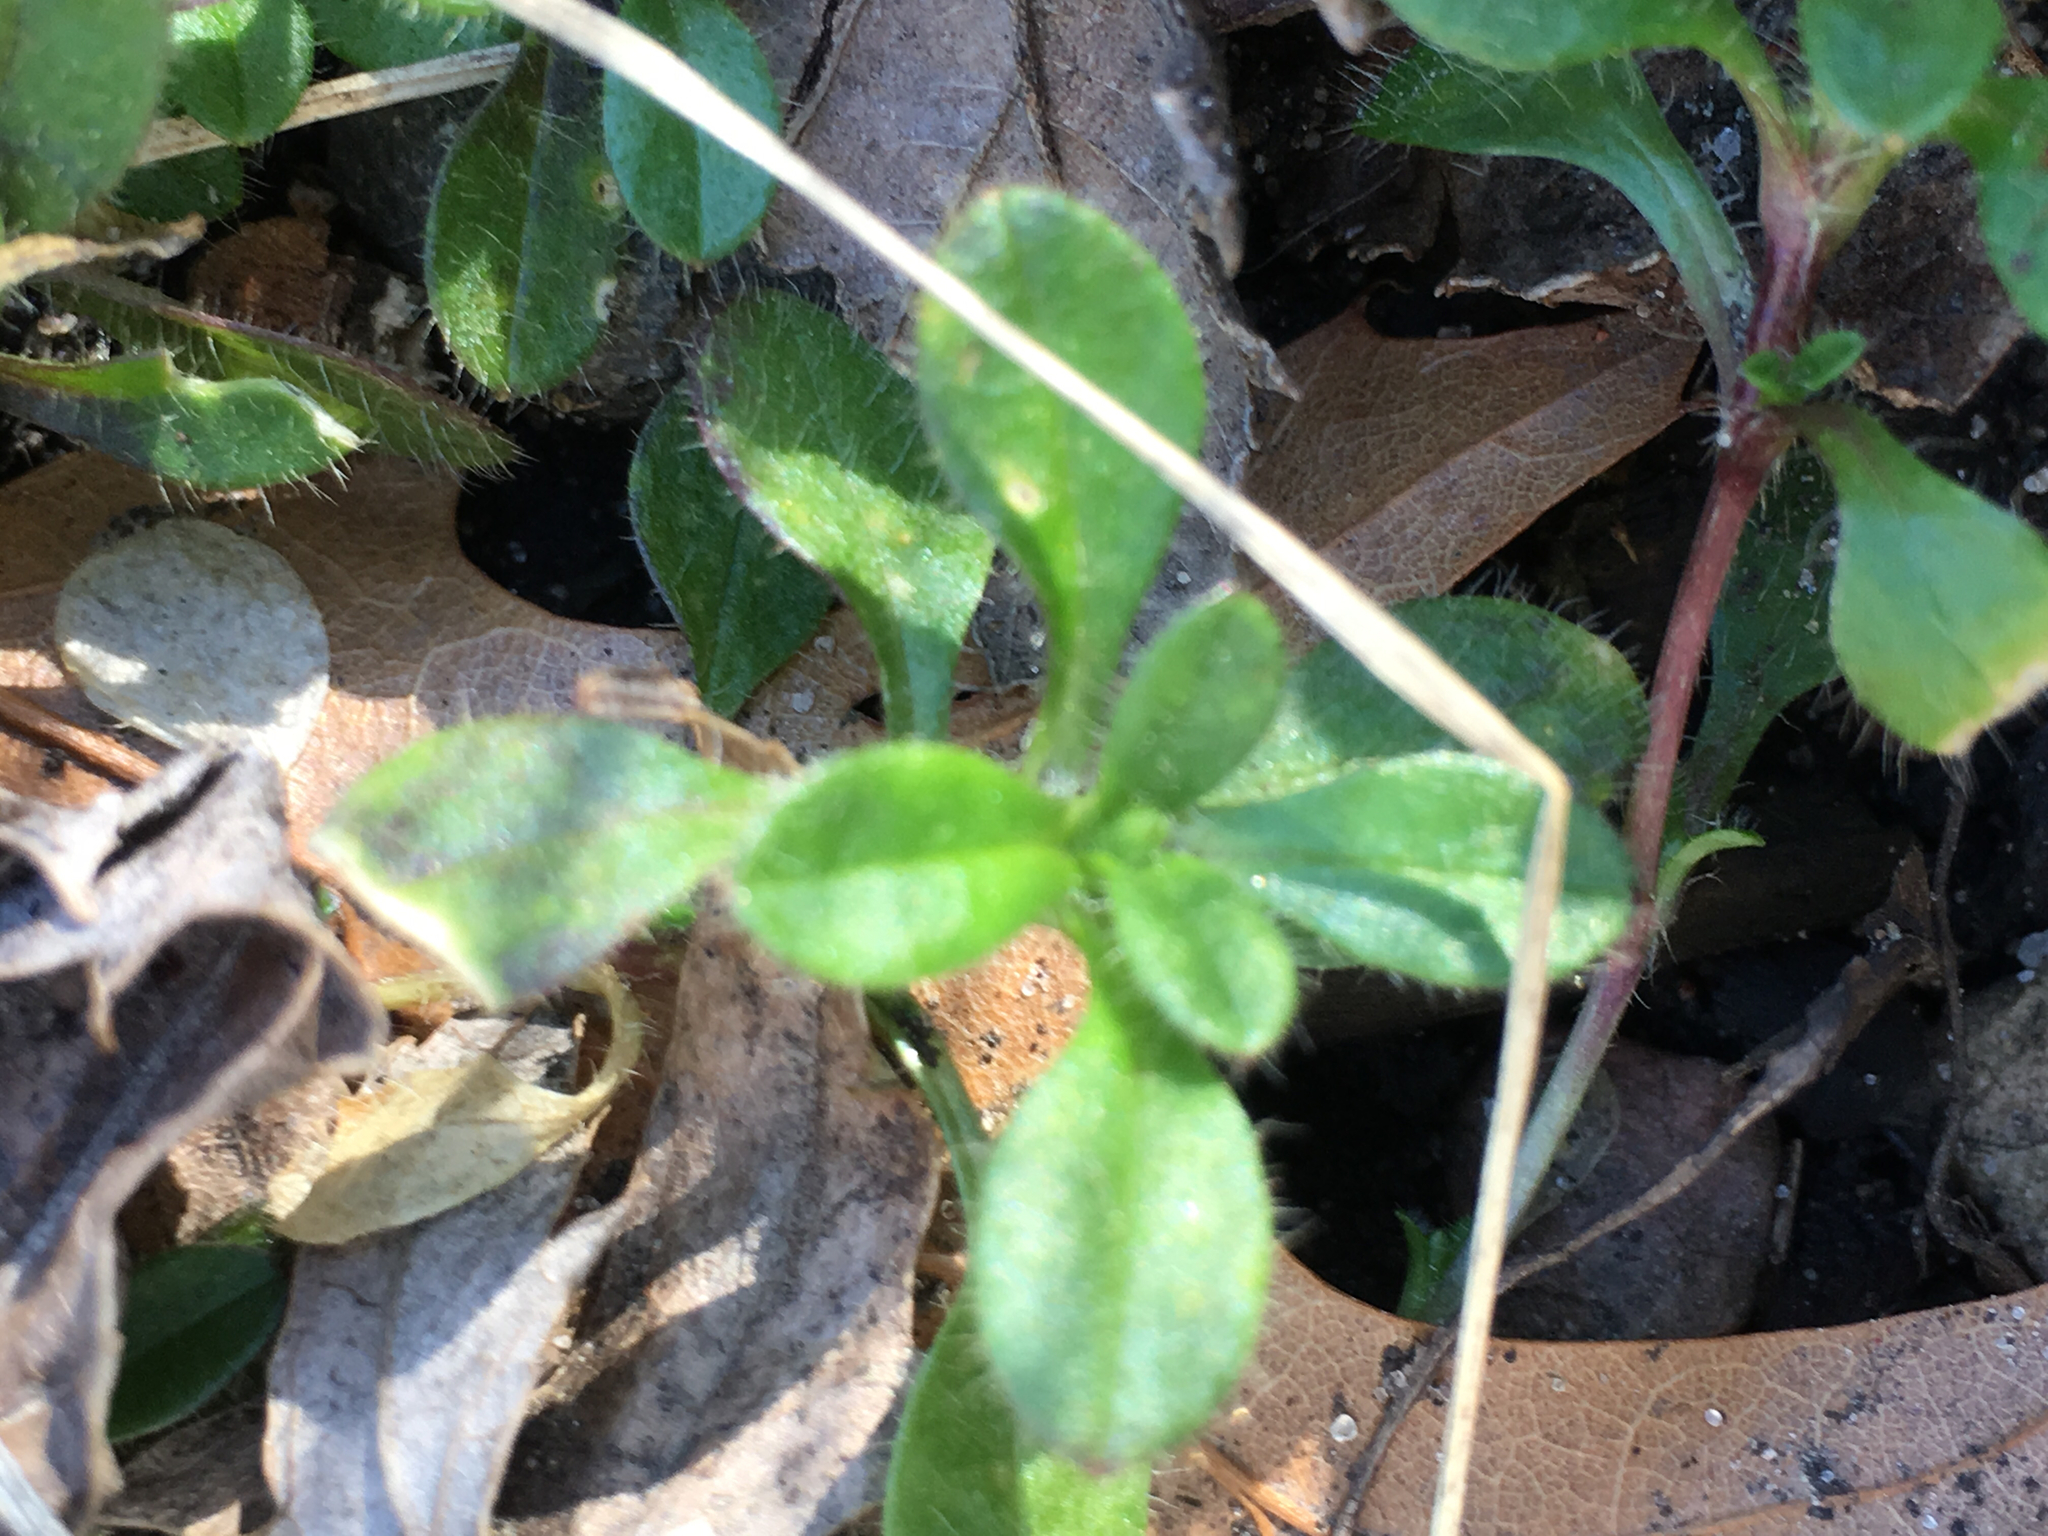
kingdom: Plantae
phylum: Tracheophyta
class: Magnoliopsida
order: Caryophyllales
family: Caryophyllaceae
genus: Cerastium
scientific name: Cerastium fontanum
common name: Common mouse-ear
